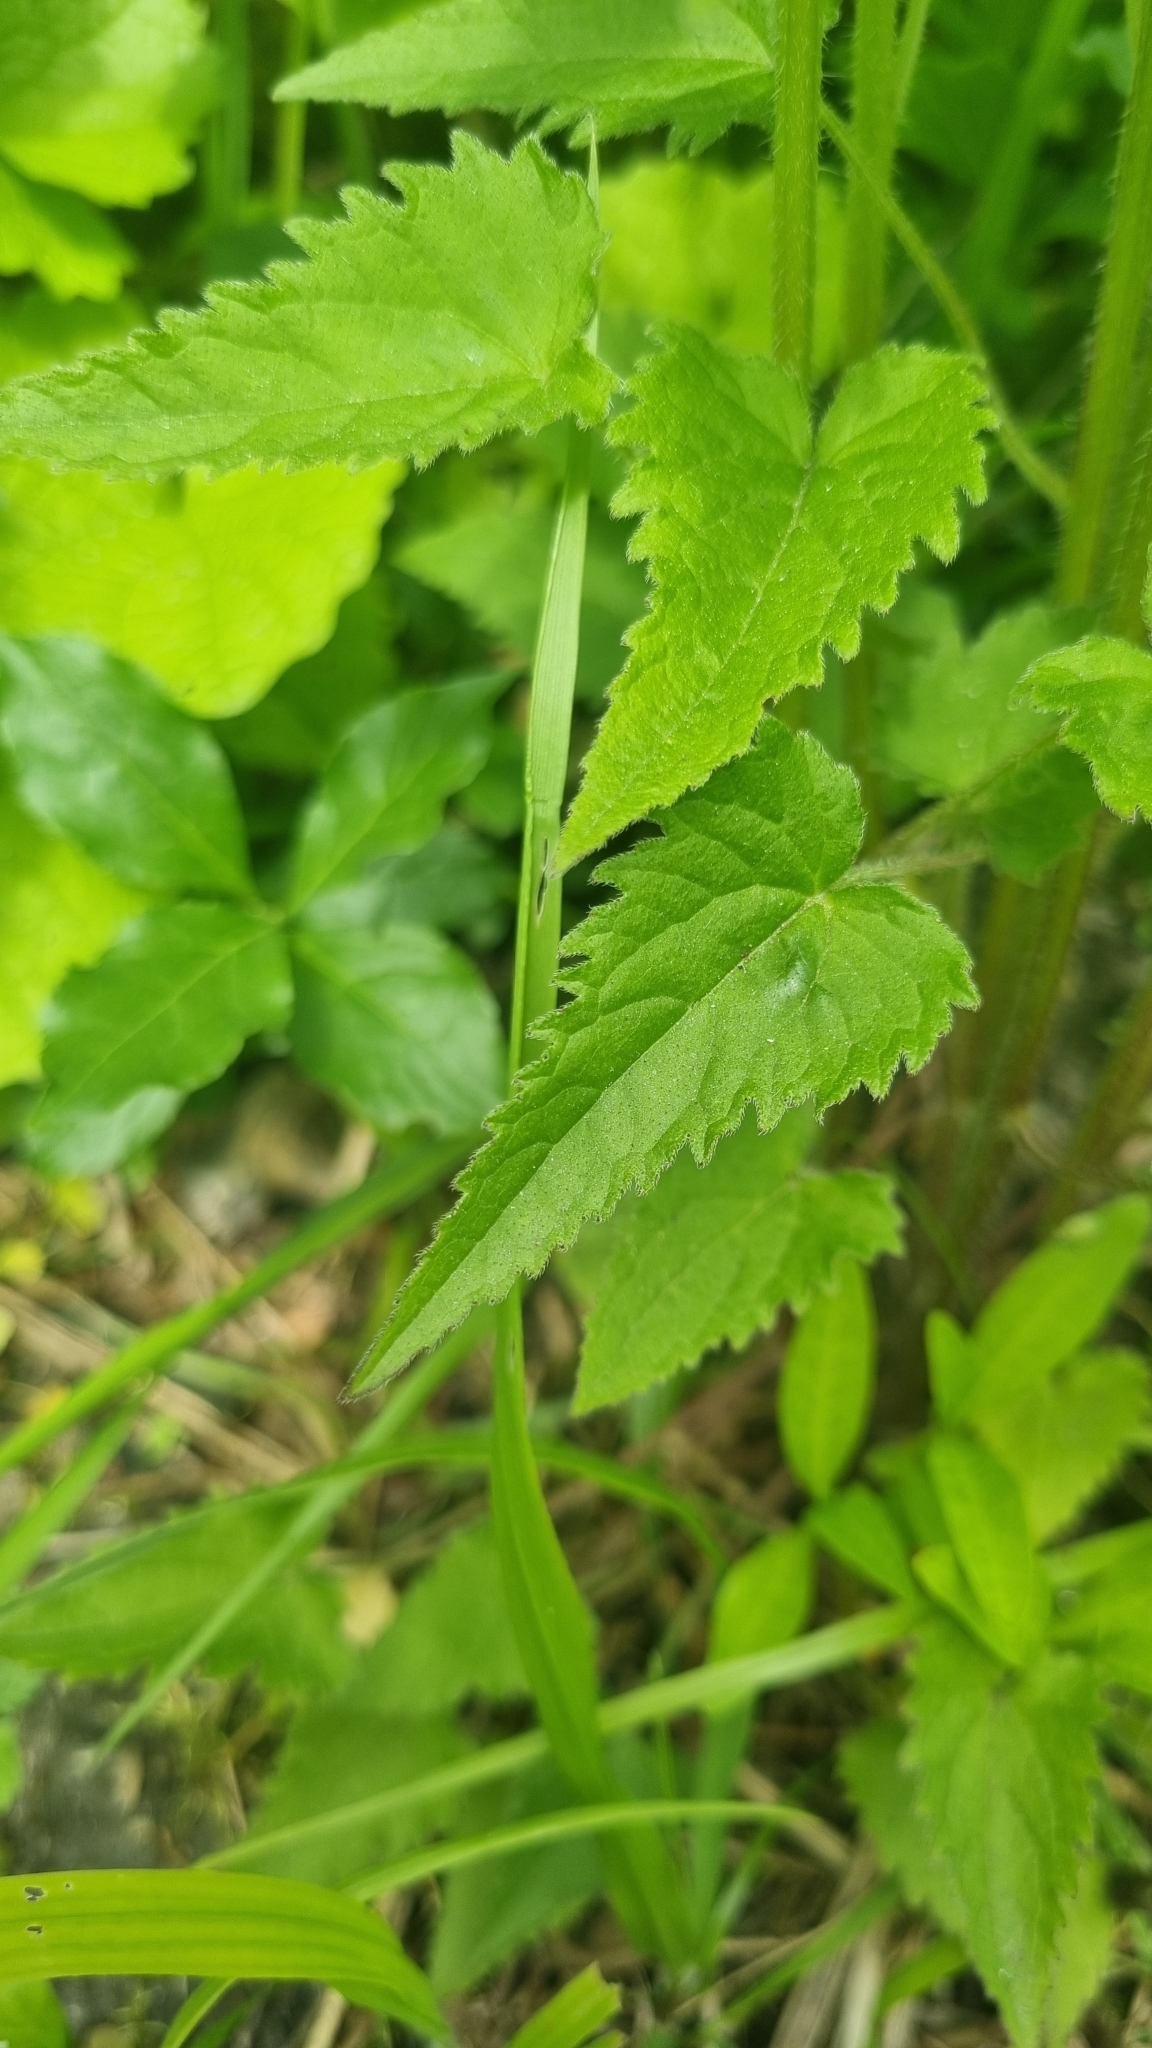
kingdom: Plantae
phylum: Tracheophyta
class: Magnoliopsida
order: Asterales
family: Campanulaceae
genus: Campanula
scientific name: Campanula trachelium
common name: Nettle-leaved bellflower
